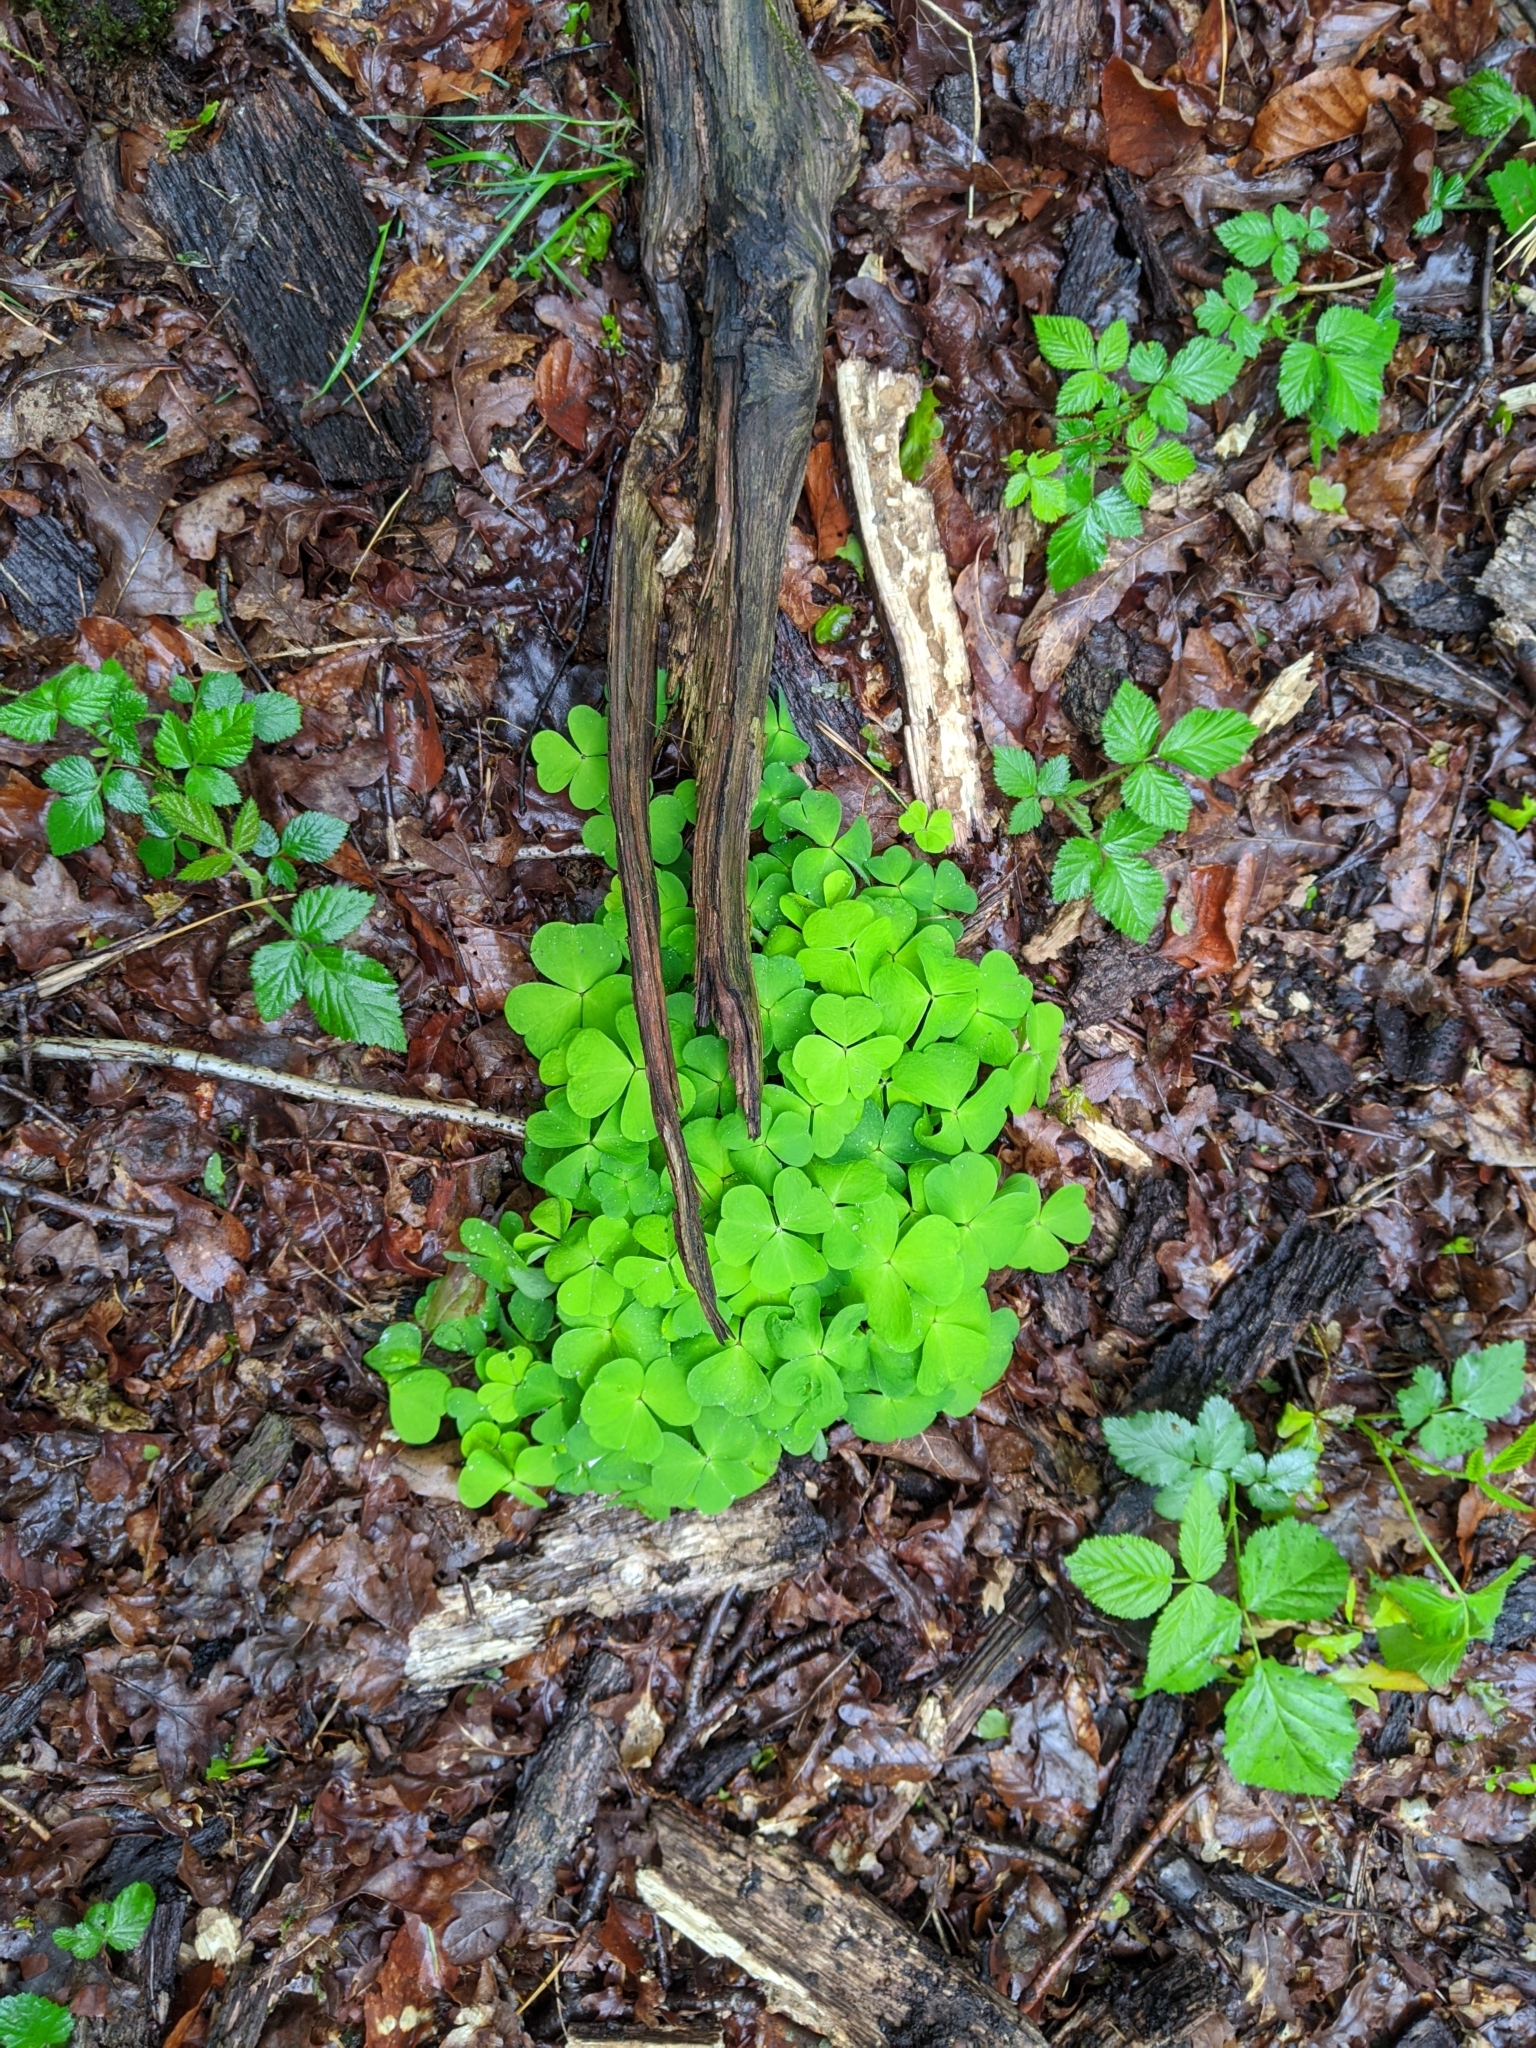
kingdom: Plantae
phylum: Tracheophyta
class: Magnoliopsida
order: Oxalidales
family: Oxalidaceae
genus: Oxalis
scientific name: Oxalis acetosella
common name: Wood-sorrel
